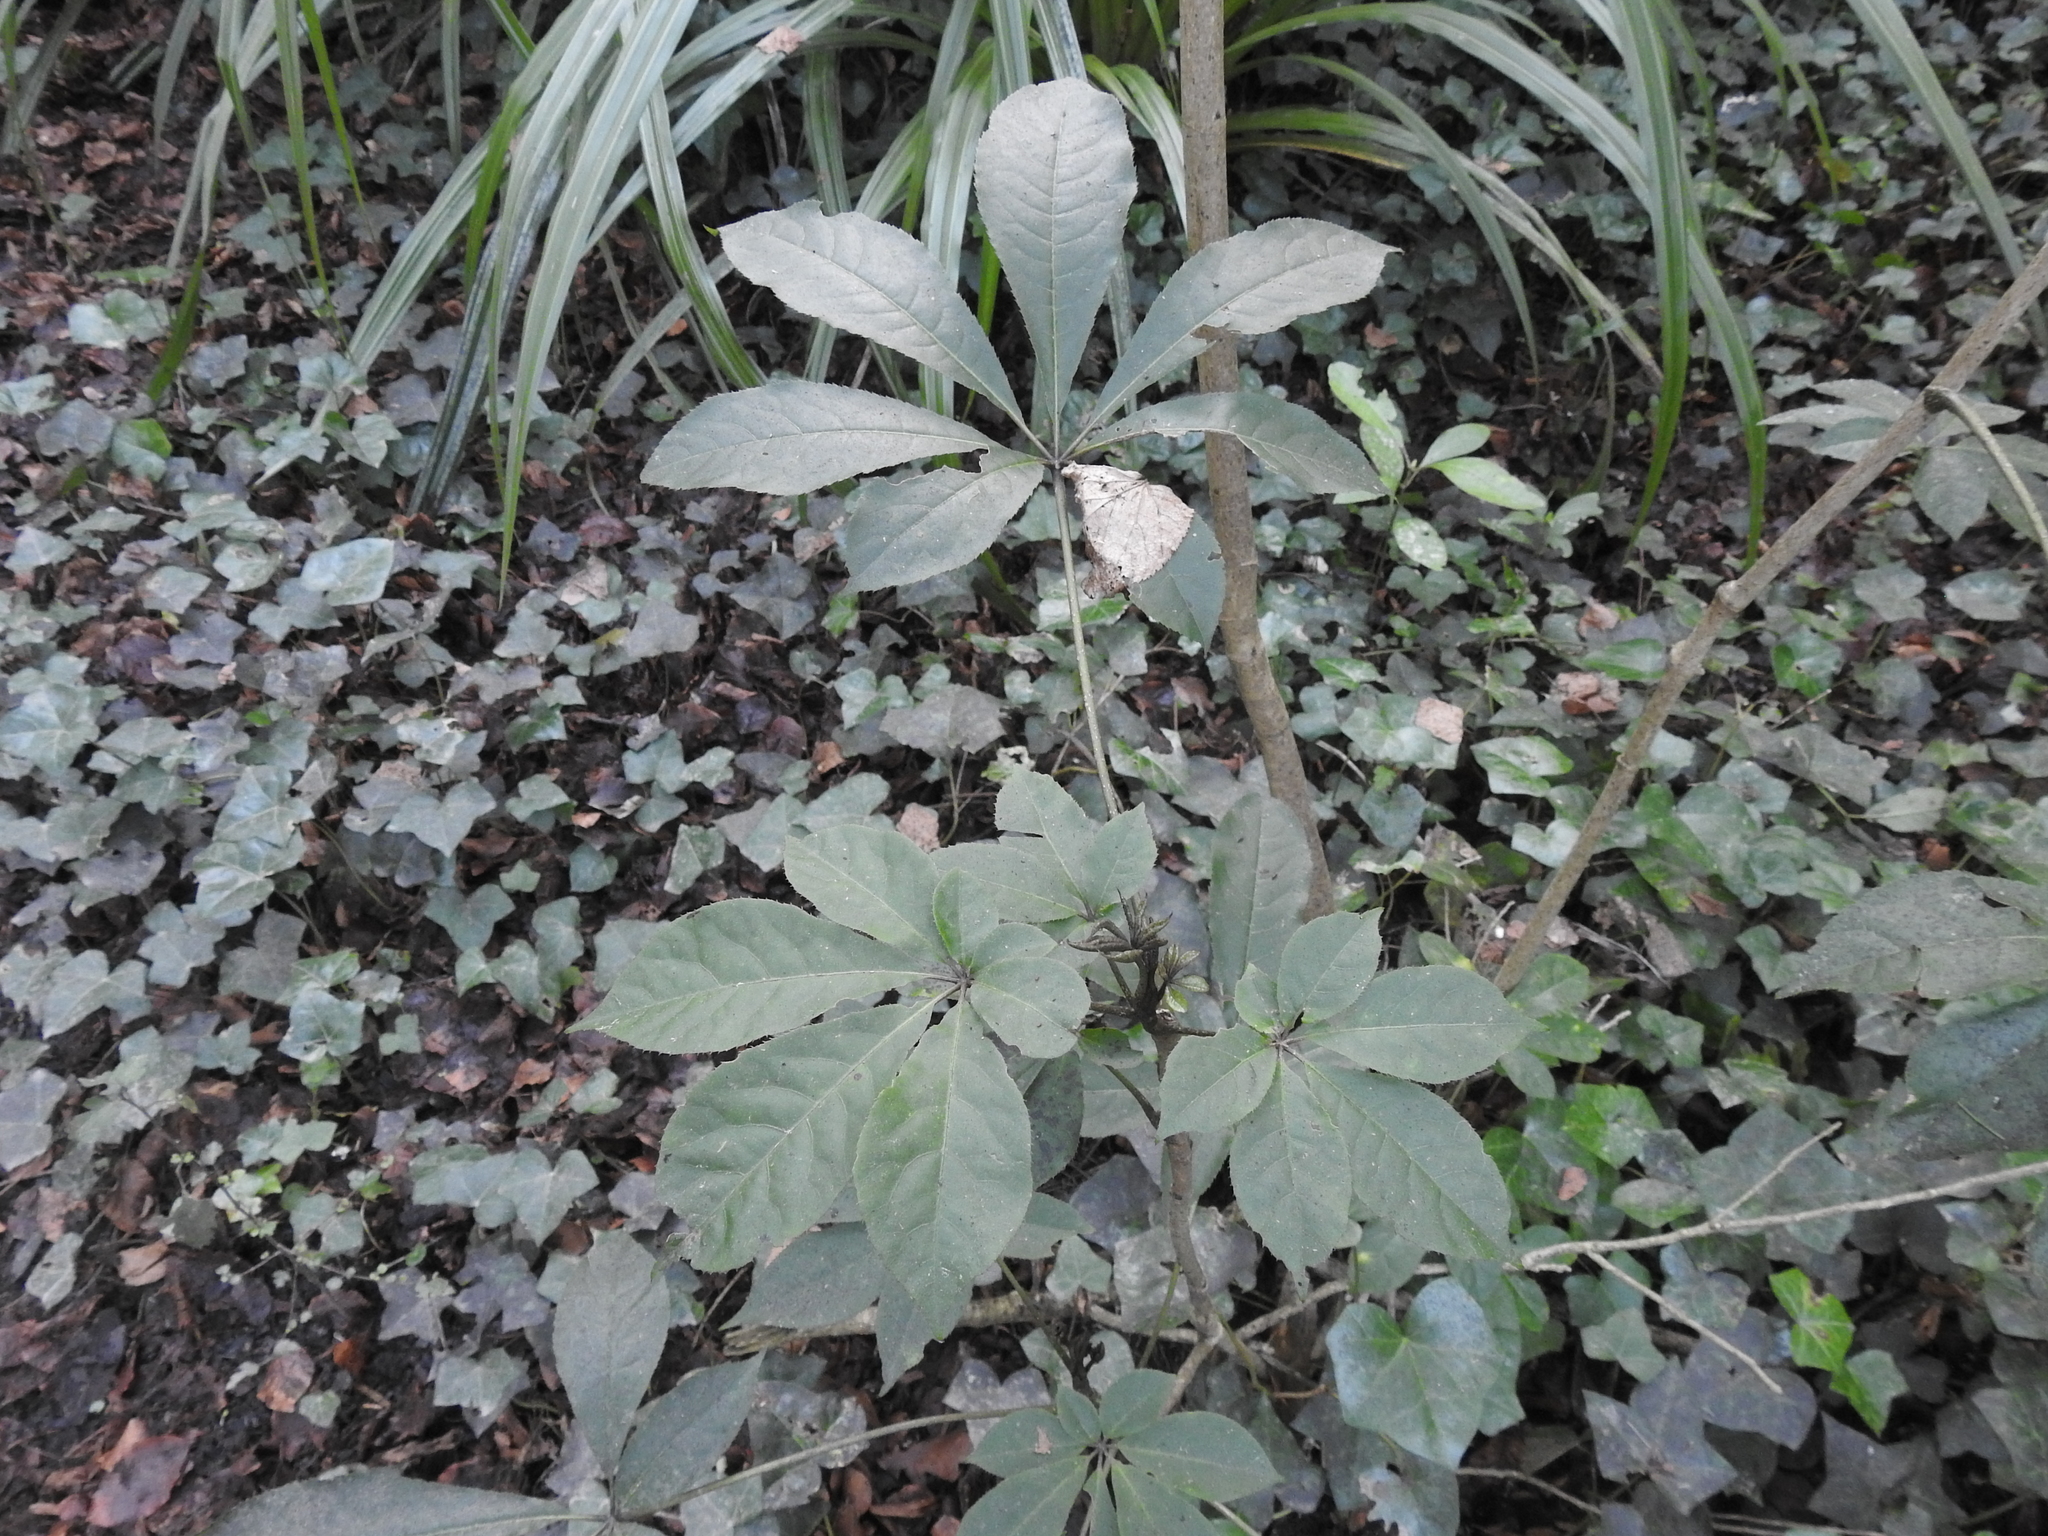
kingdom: Plantae
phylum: Tracheophyta
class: Magnoliopsida
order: Apiales
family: Araliaceae
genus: Schefflera
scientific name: Schefflera digitata
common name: Pate
